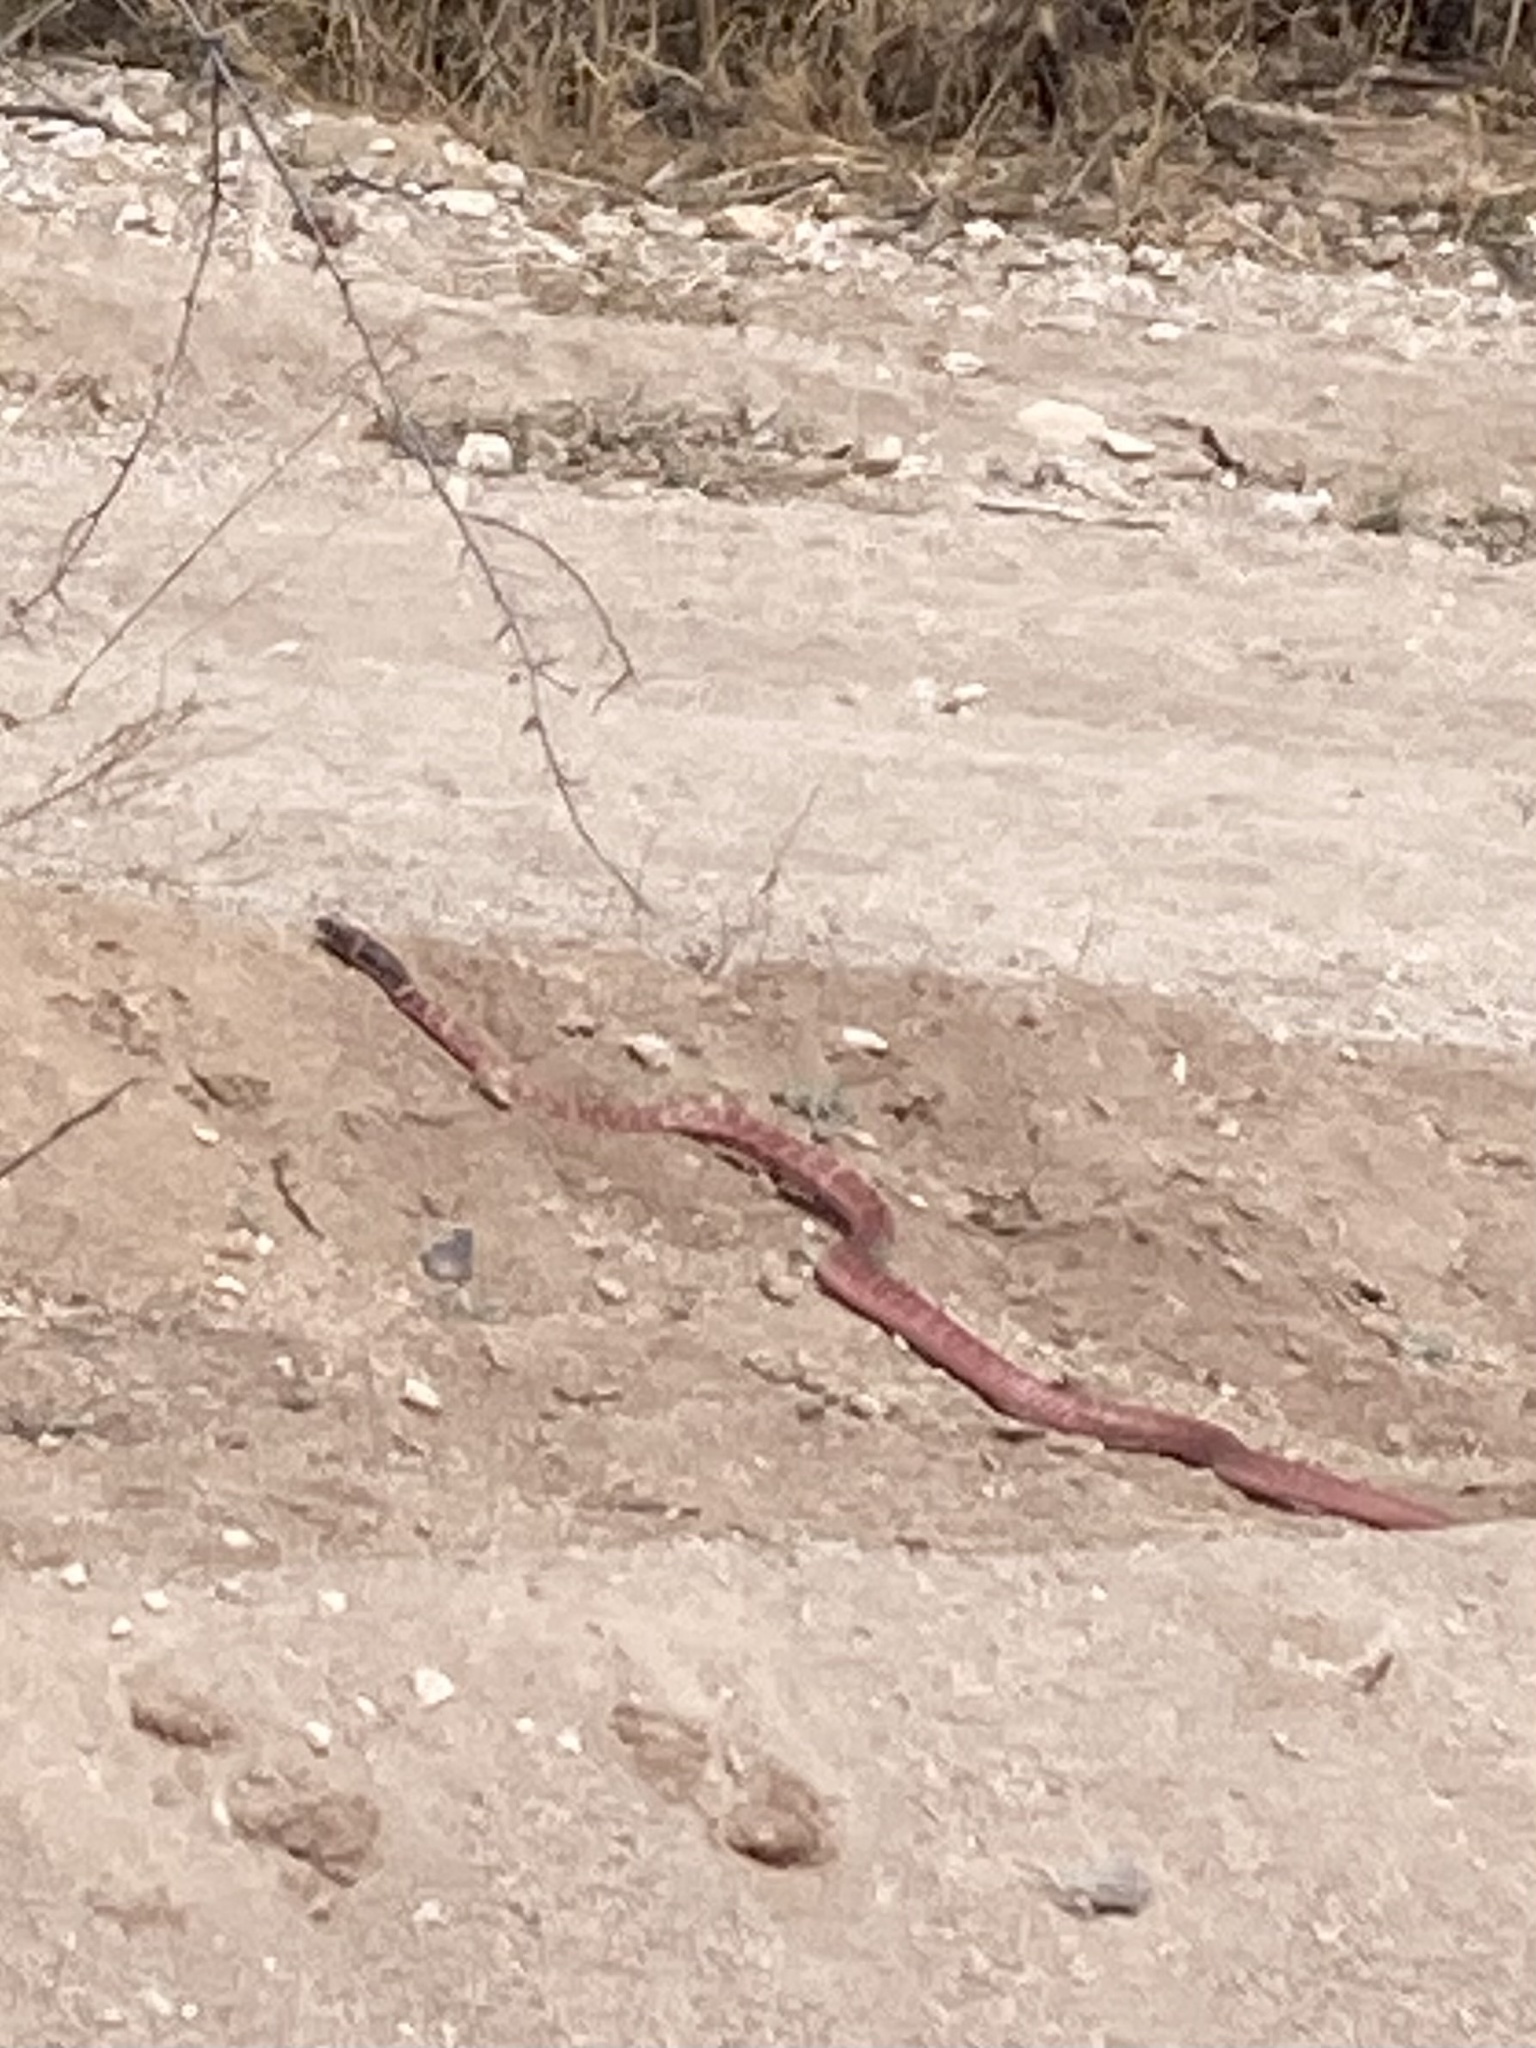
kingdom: Animalia
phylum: Chordata
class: Squamata
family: Colubridae
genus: Masticophis
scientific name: Masticophis flagellum
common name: Coachwhip
